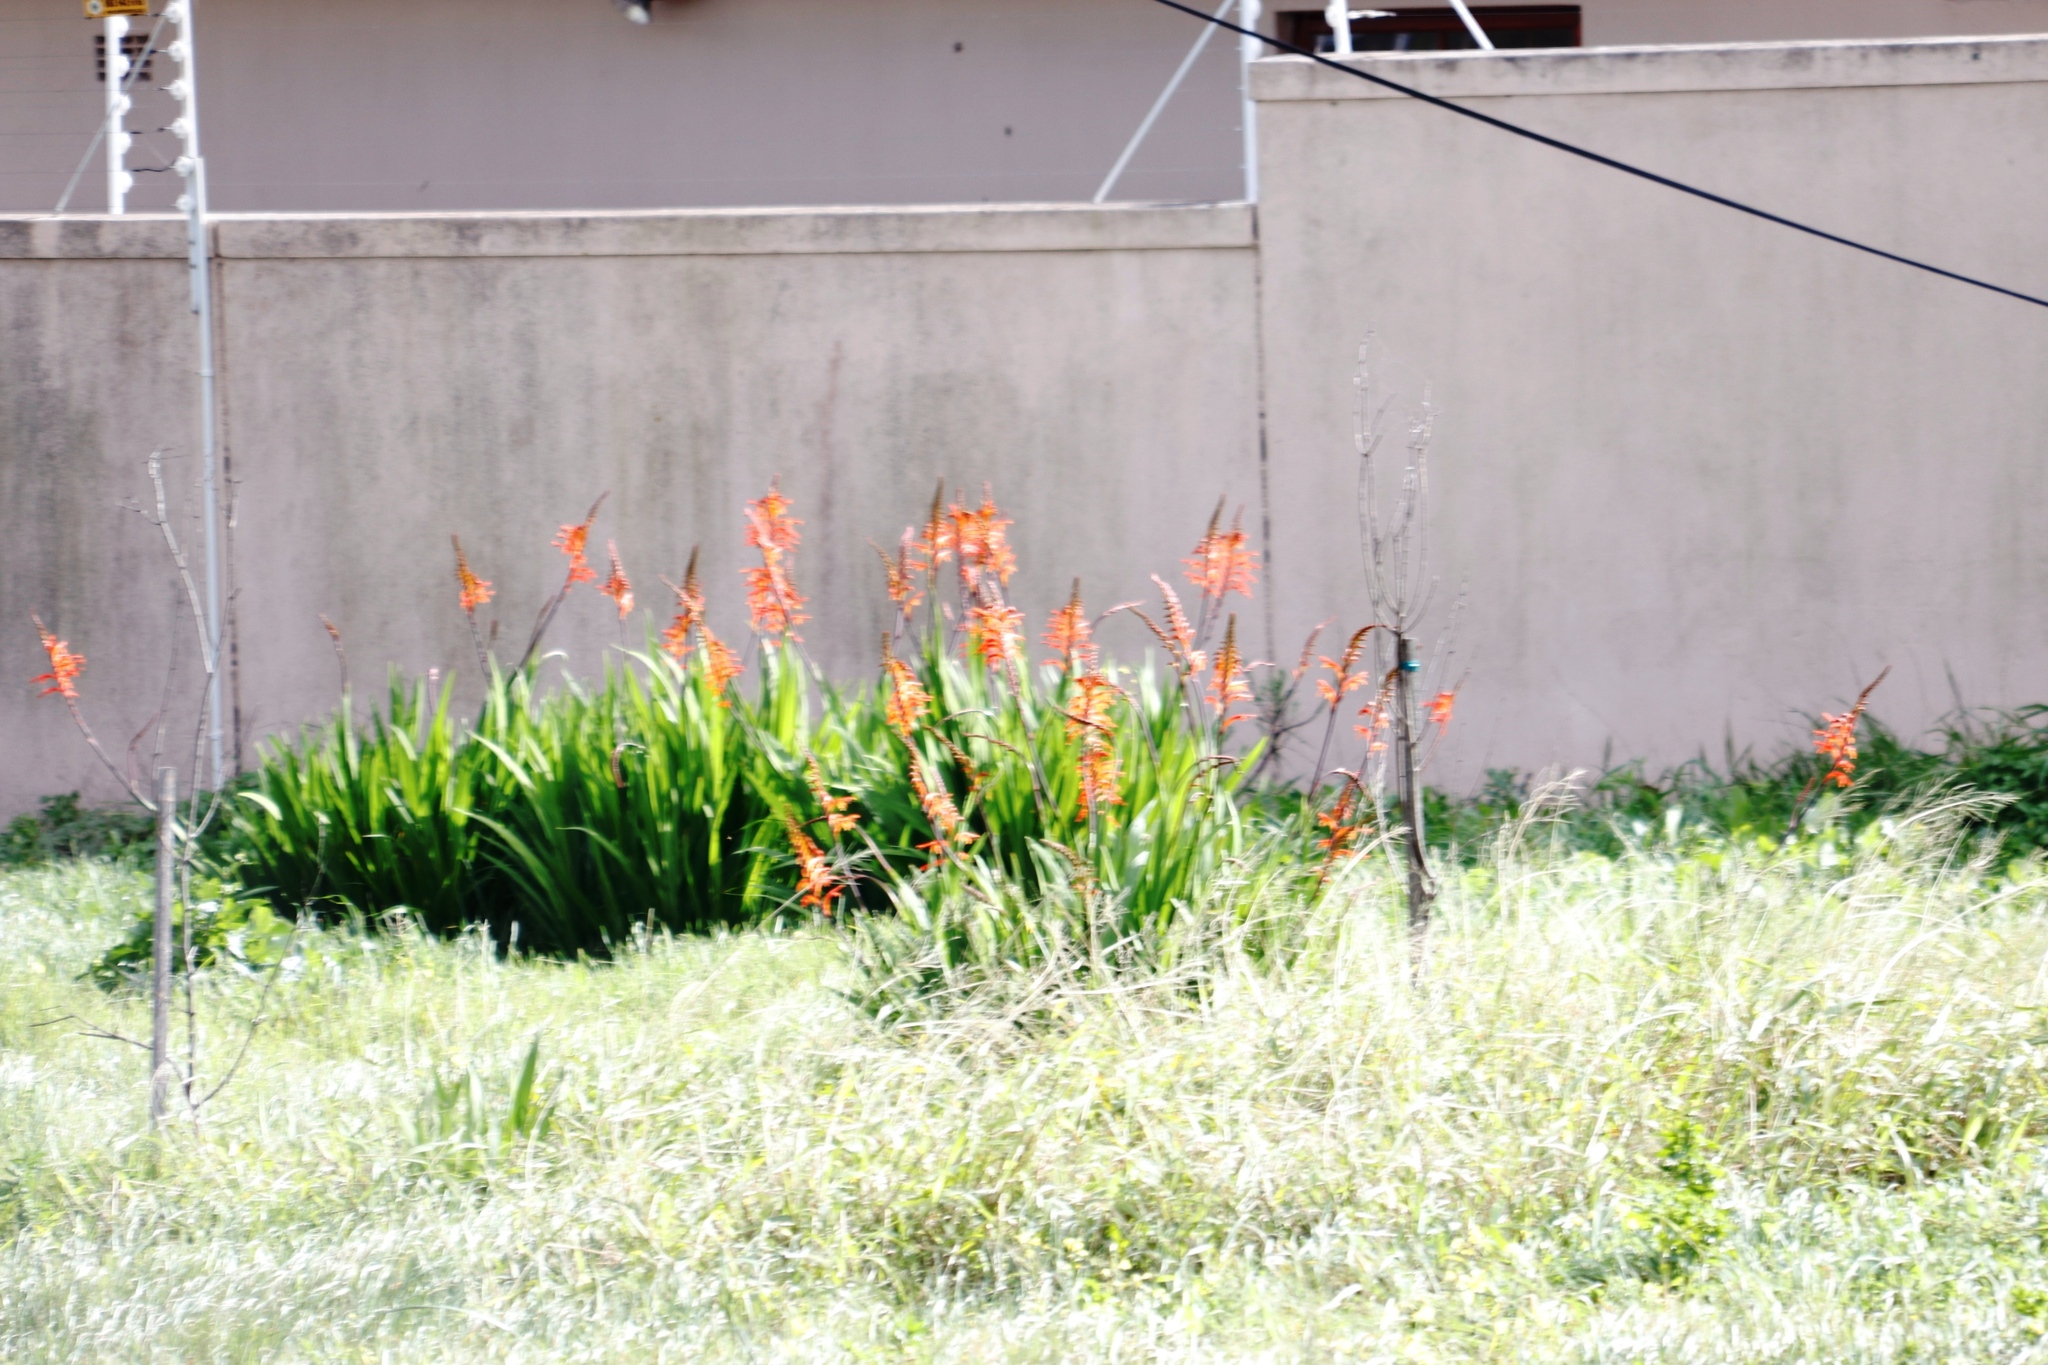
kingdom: Plantae
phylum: Tracheophyta
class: Liliopsida
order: Asparagales
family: Iridaceae
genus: Chasmanthe
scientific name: Chasmanthe floribunda
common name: African cornflag
